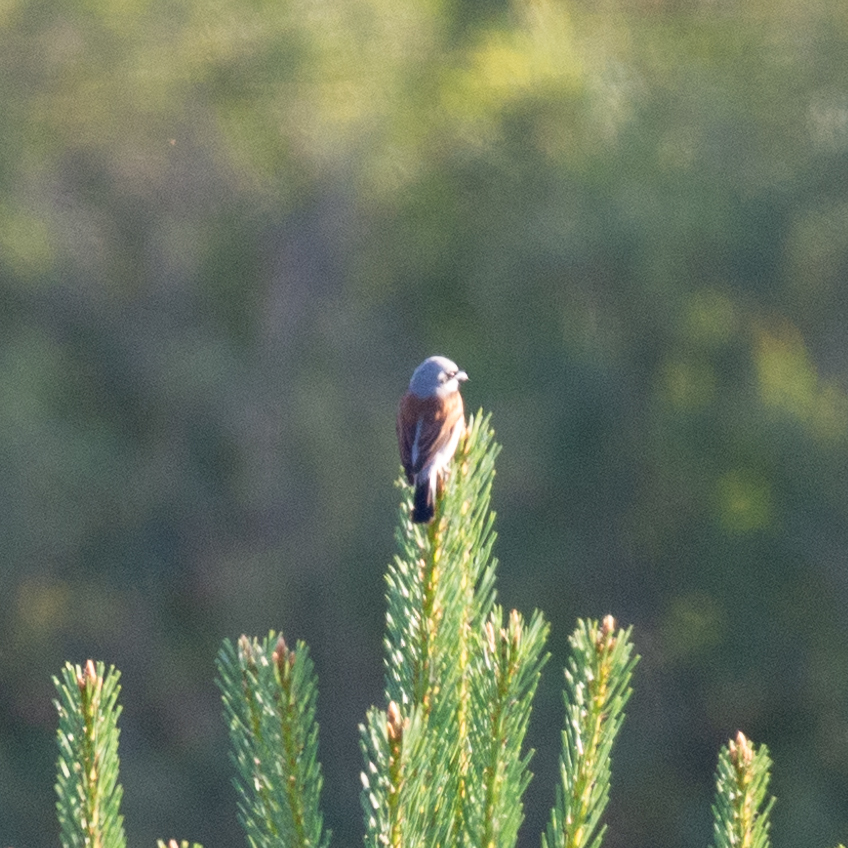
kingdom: Animalia
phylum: Chordata
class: Aves
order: Passeriformes
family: Laniidae
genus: Lanius
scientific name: Lanius collurio
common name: Red-backed shrike
